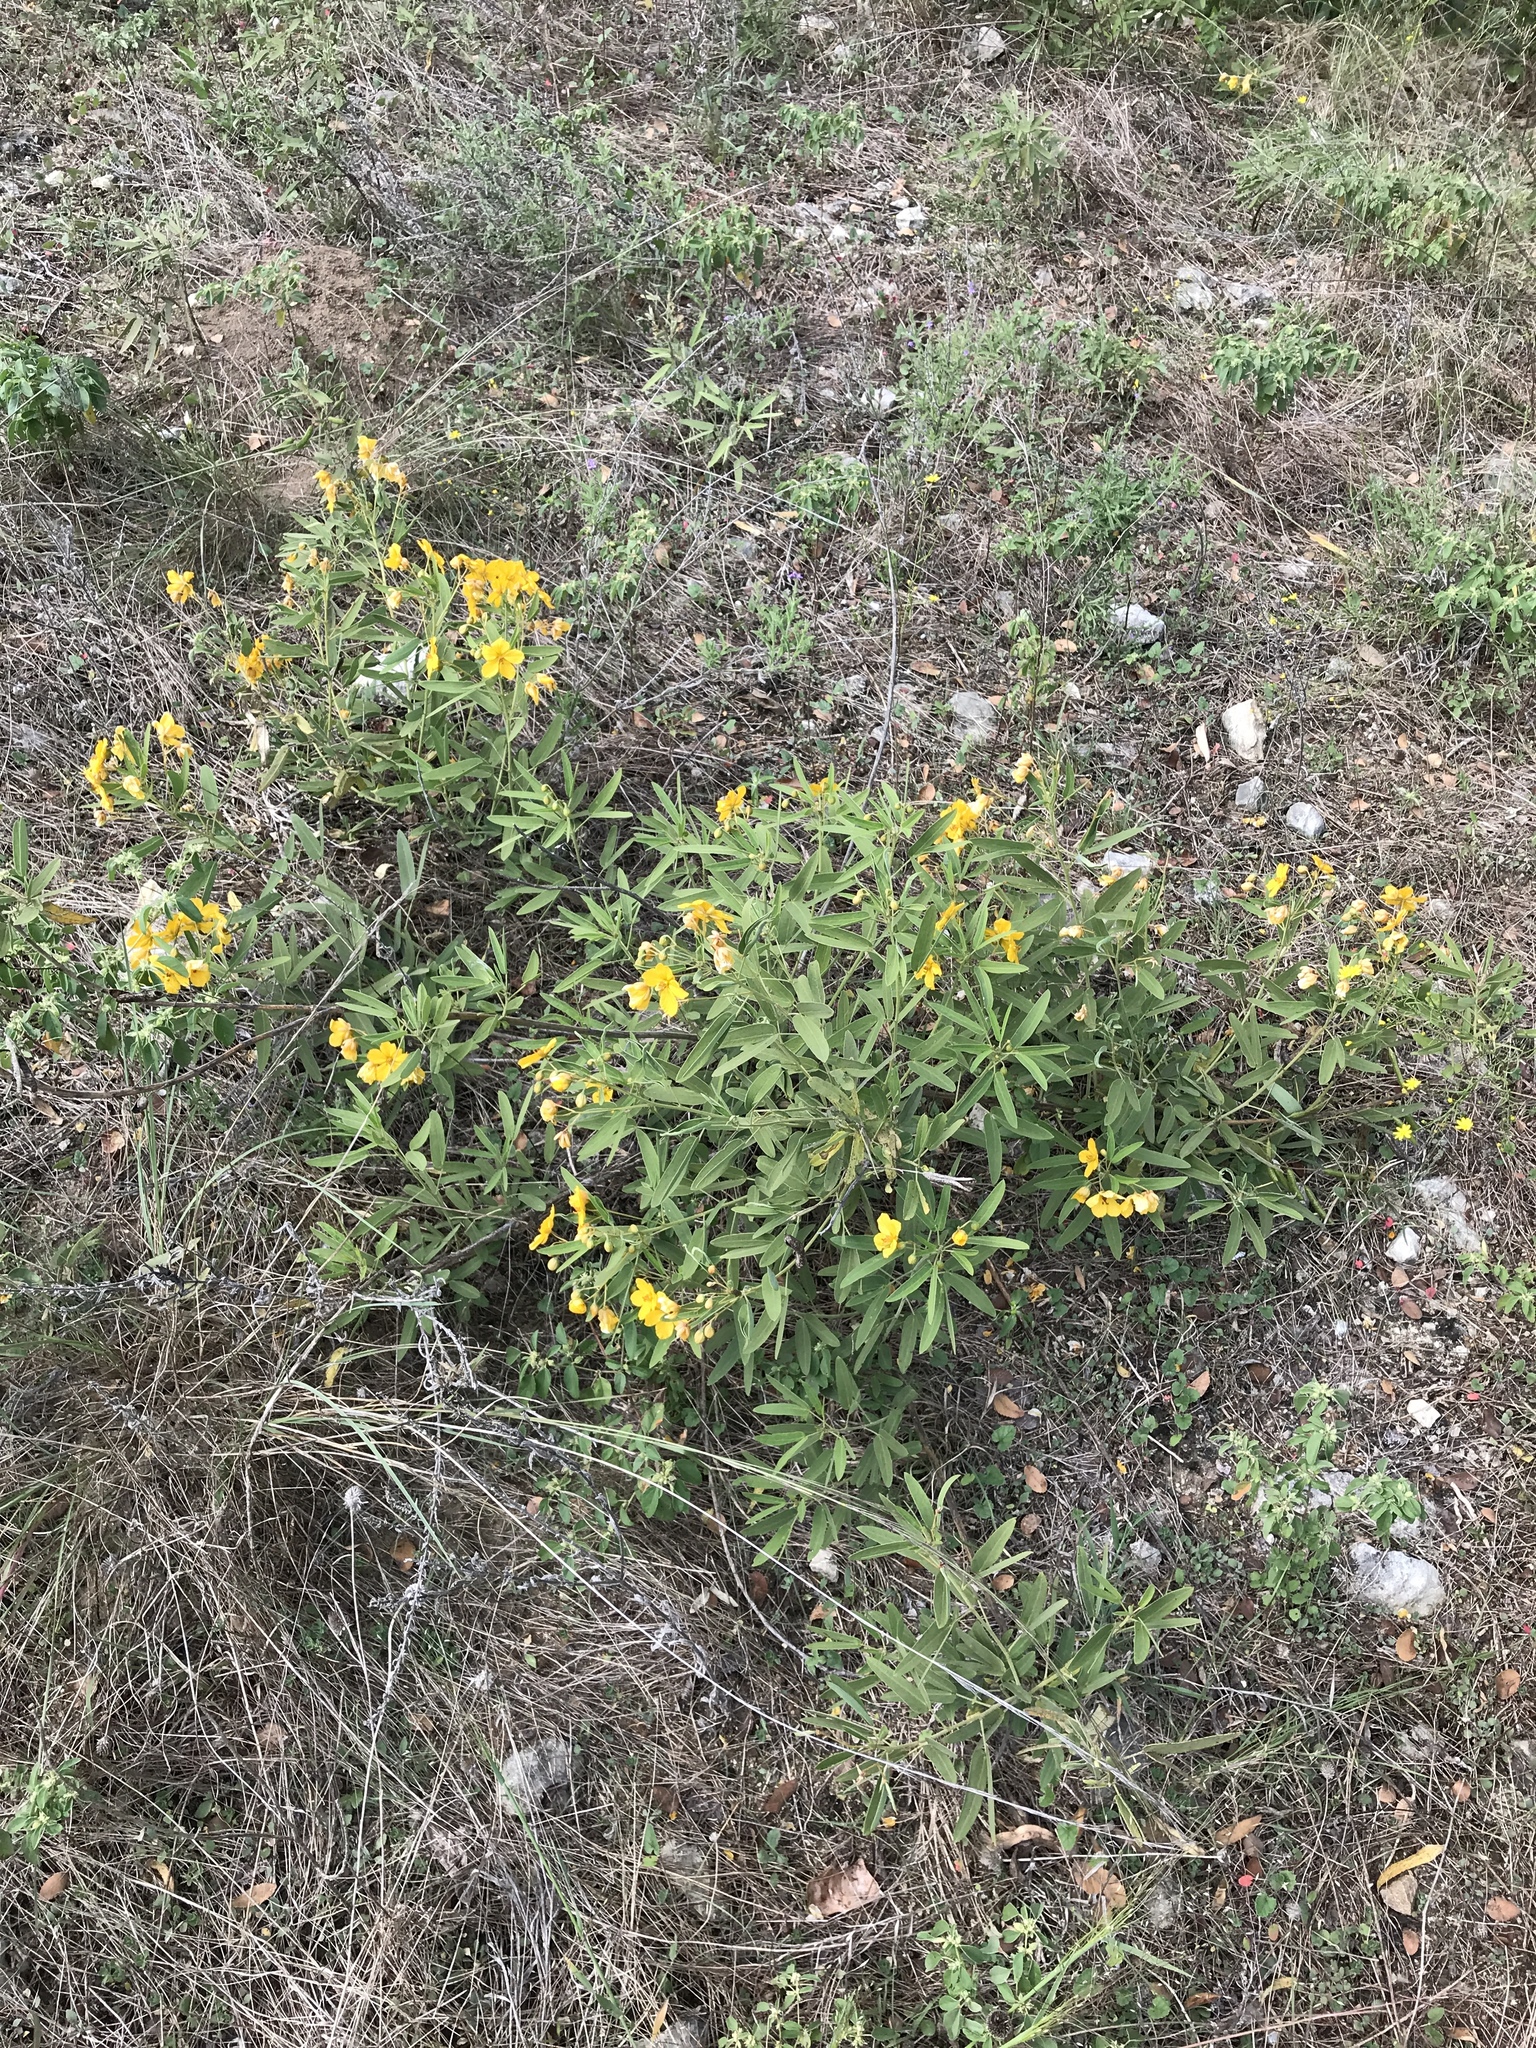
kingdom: Plantae
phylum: Tracheophyta
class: Magnoliopsida
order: Fabales
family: Fabaceae
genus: Senna
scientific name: Senna roemeriana
